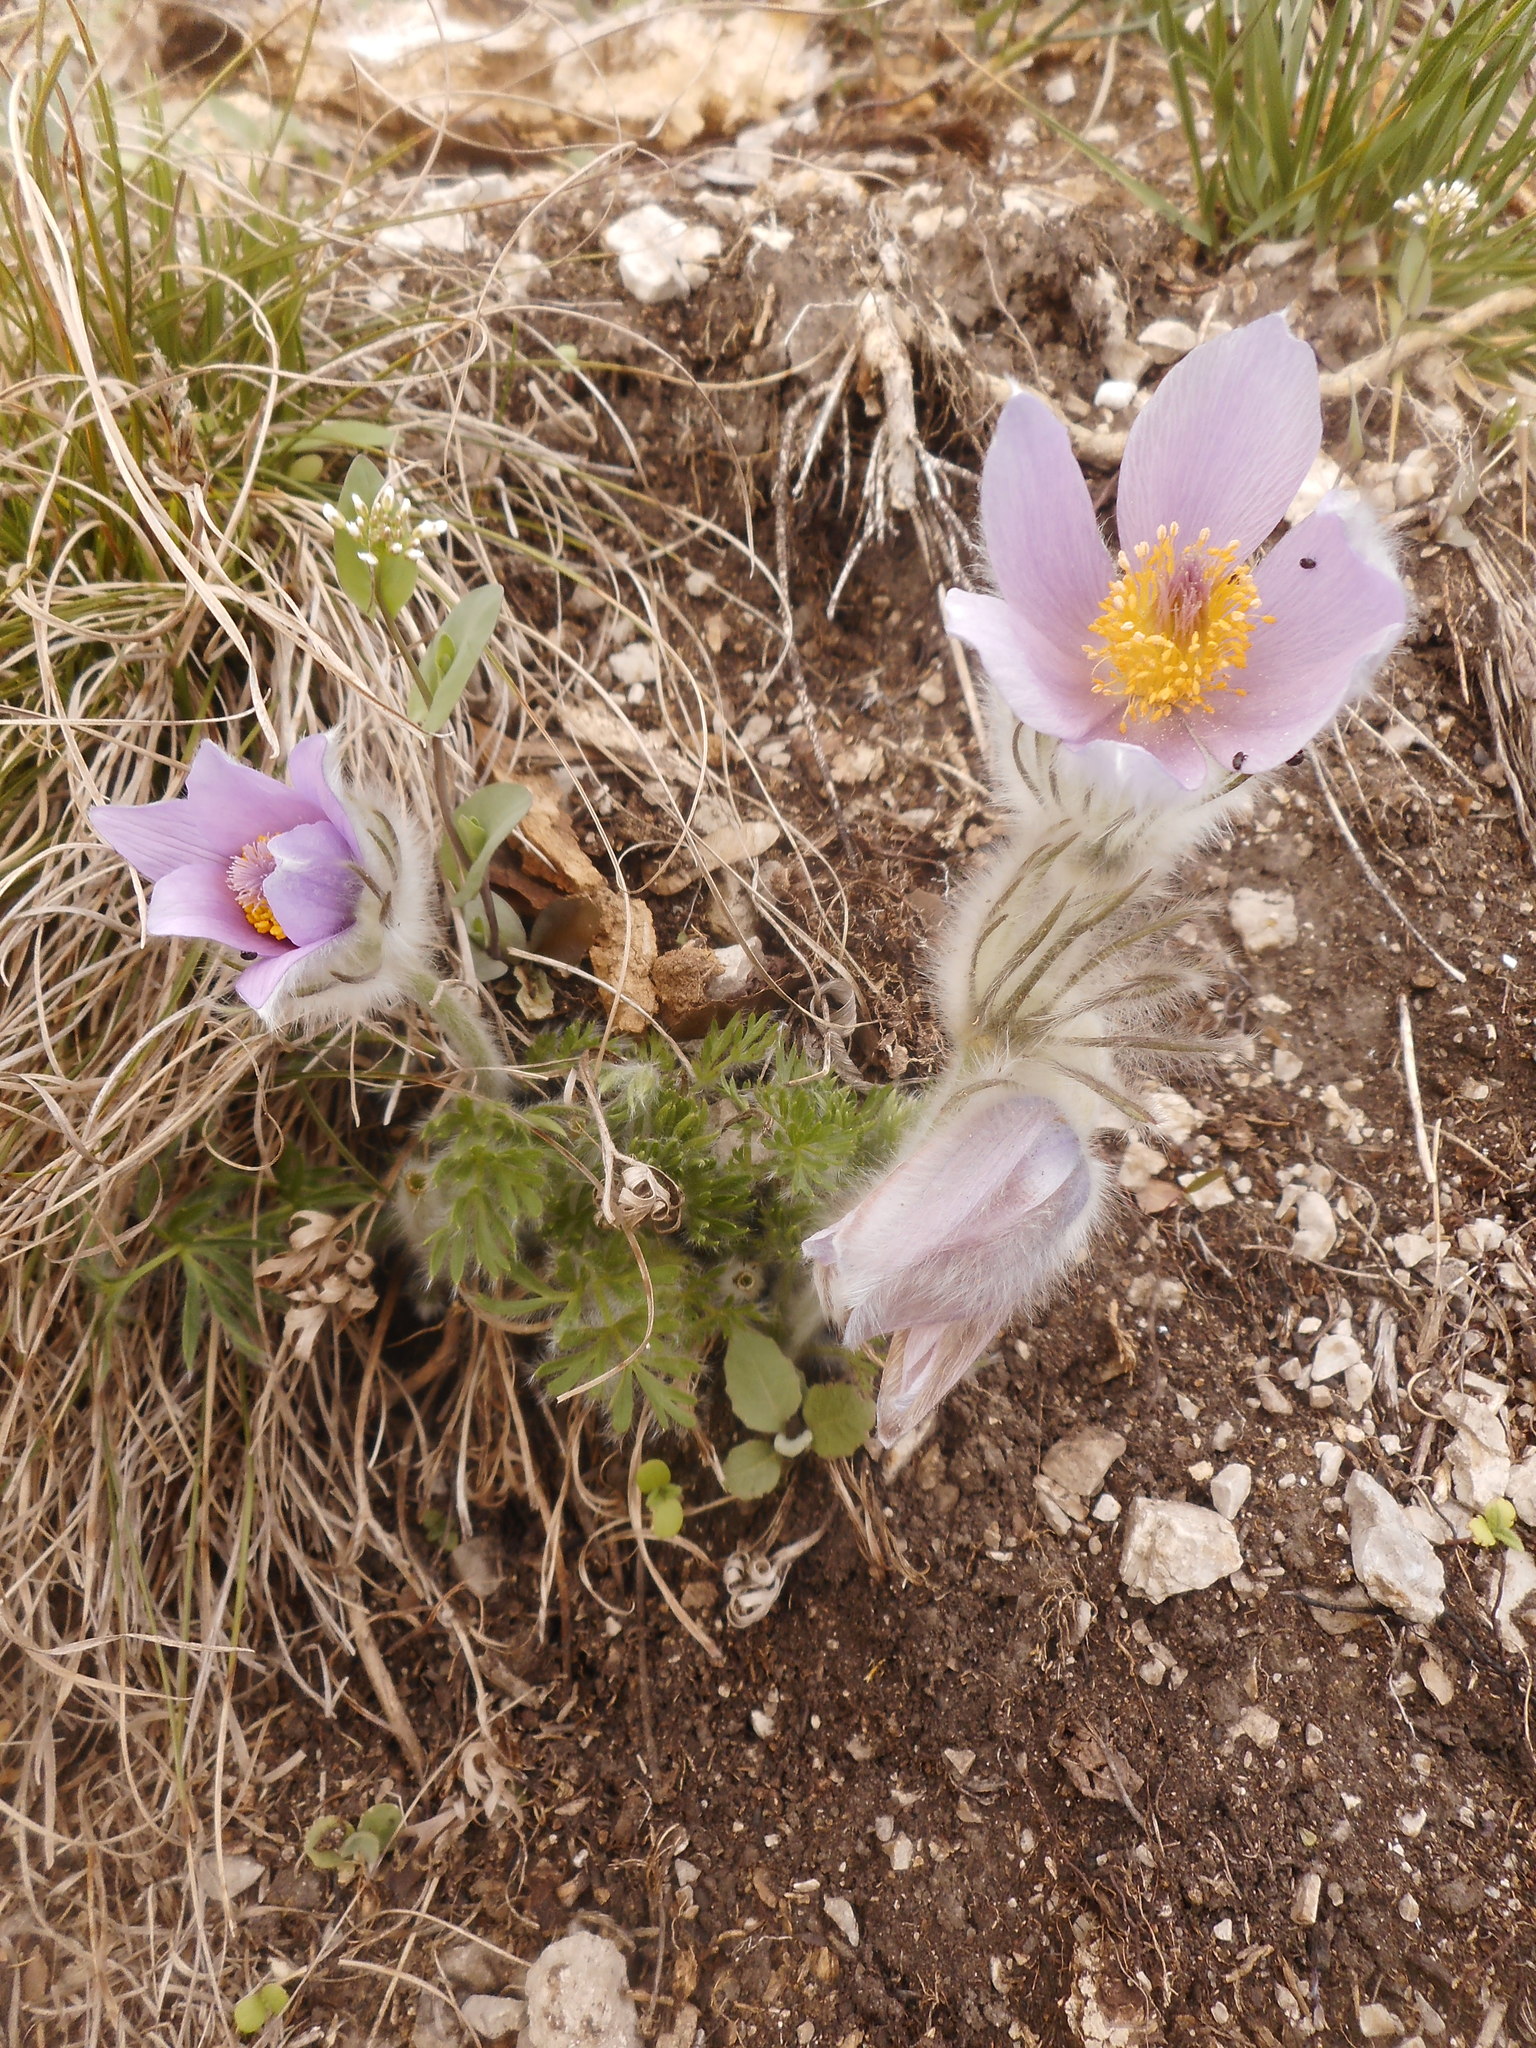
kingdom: Plantae
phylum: Tracheophyta
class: Magnoliopsida
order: Ranunculales
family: Ranunculaceae
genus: Pulsatilla
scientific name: Pulsatilla grandis
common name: Greater pasque flower
